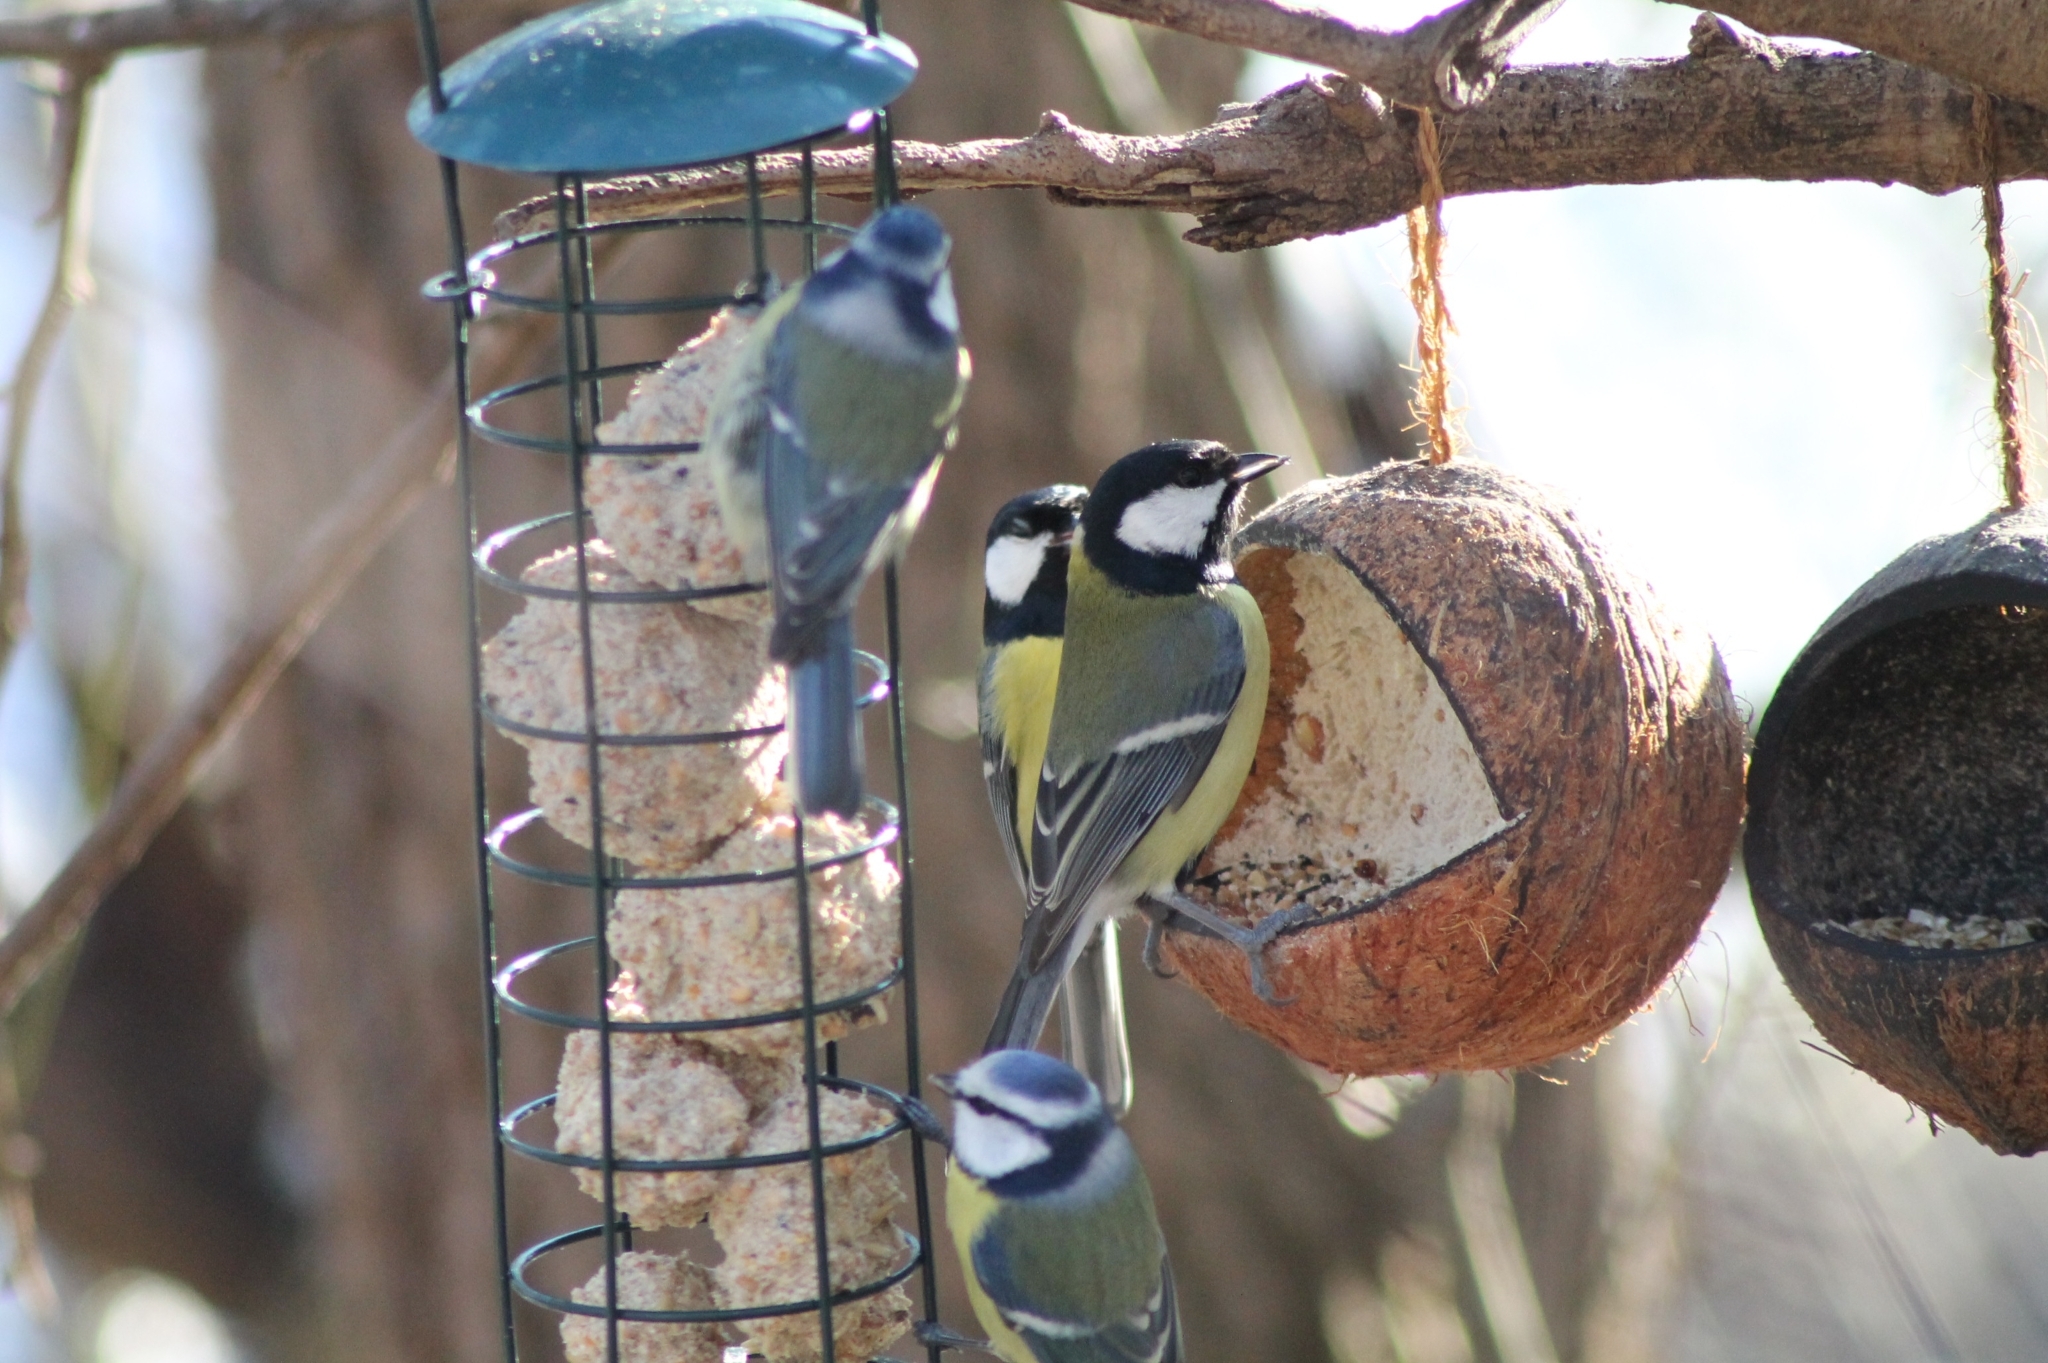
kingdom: Animalia
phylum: Chordata
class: Aves
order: Passeriformes
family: Paridae
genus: Parus
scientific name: Parus major
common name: Great tit
